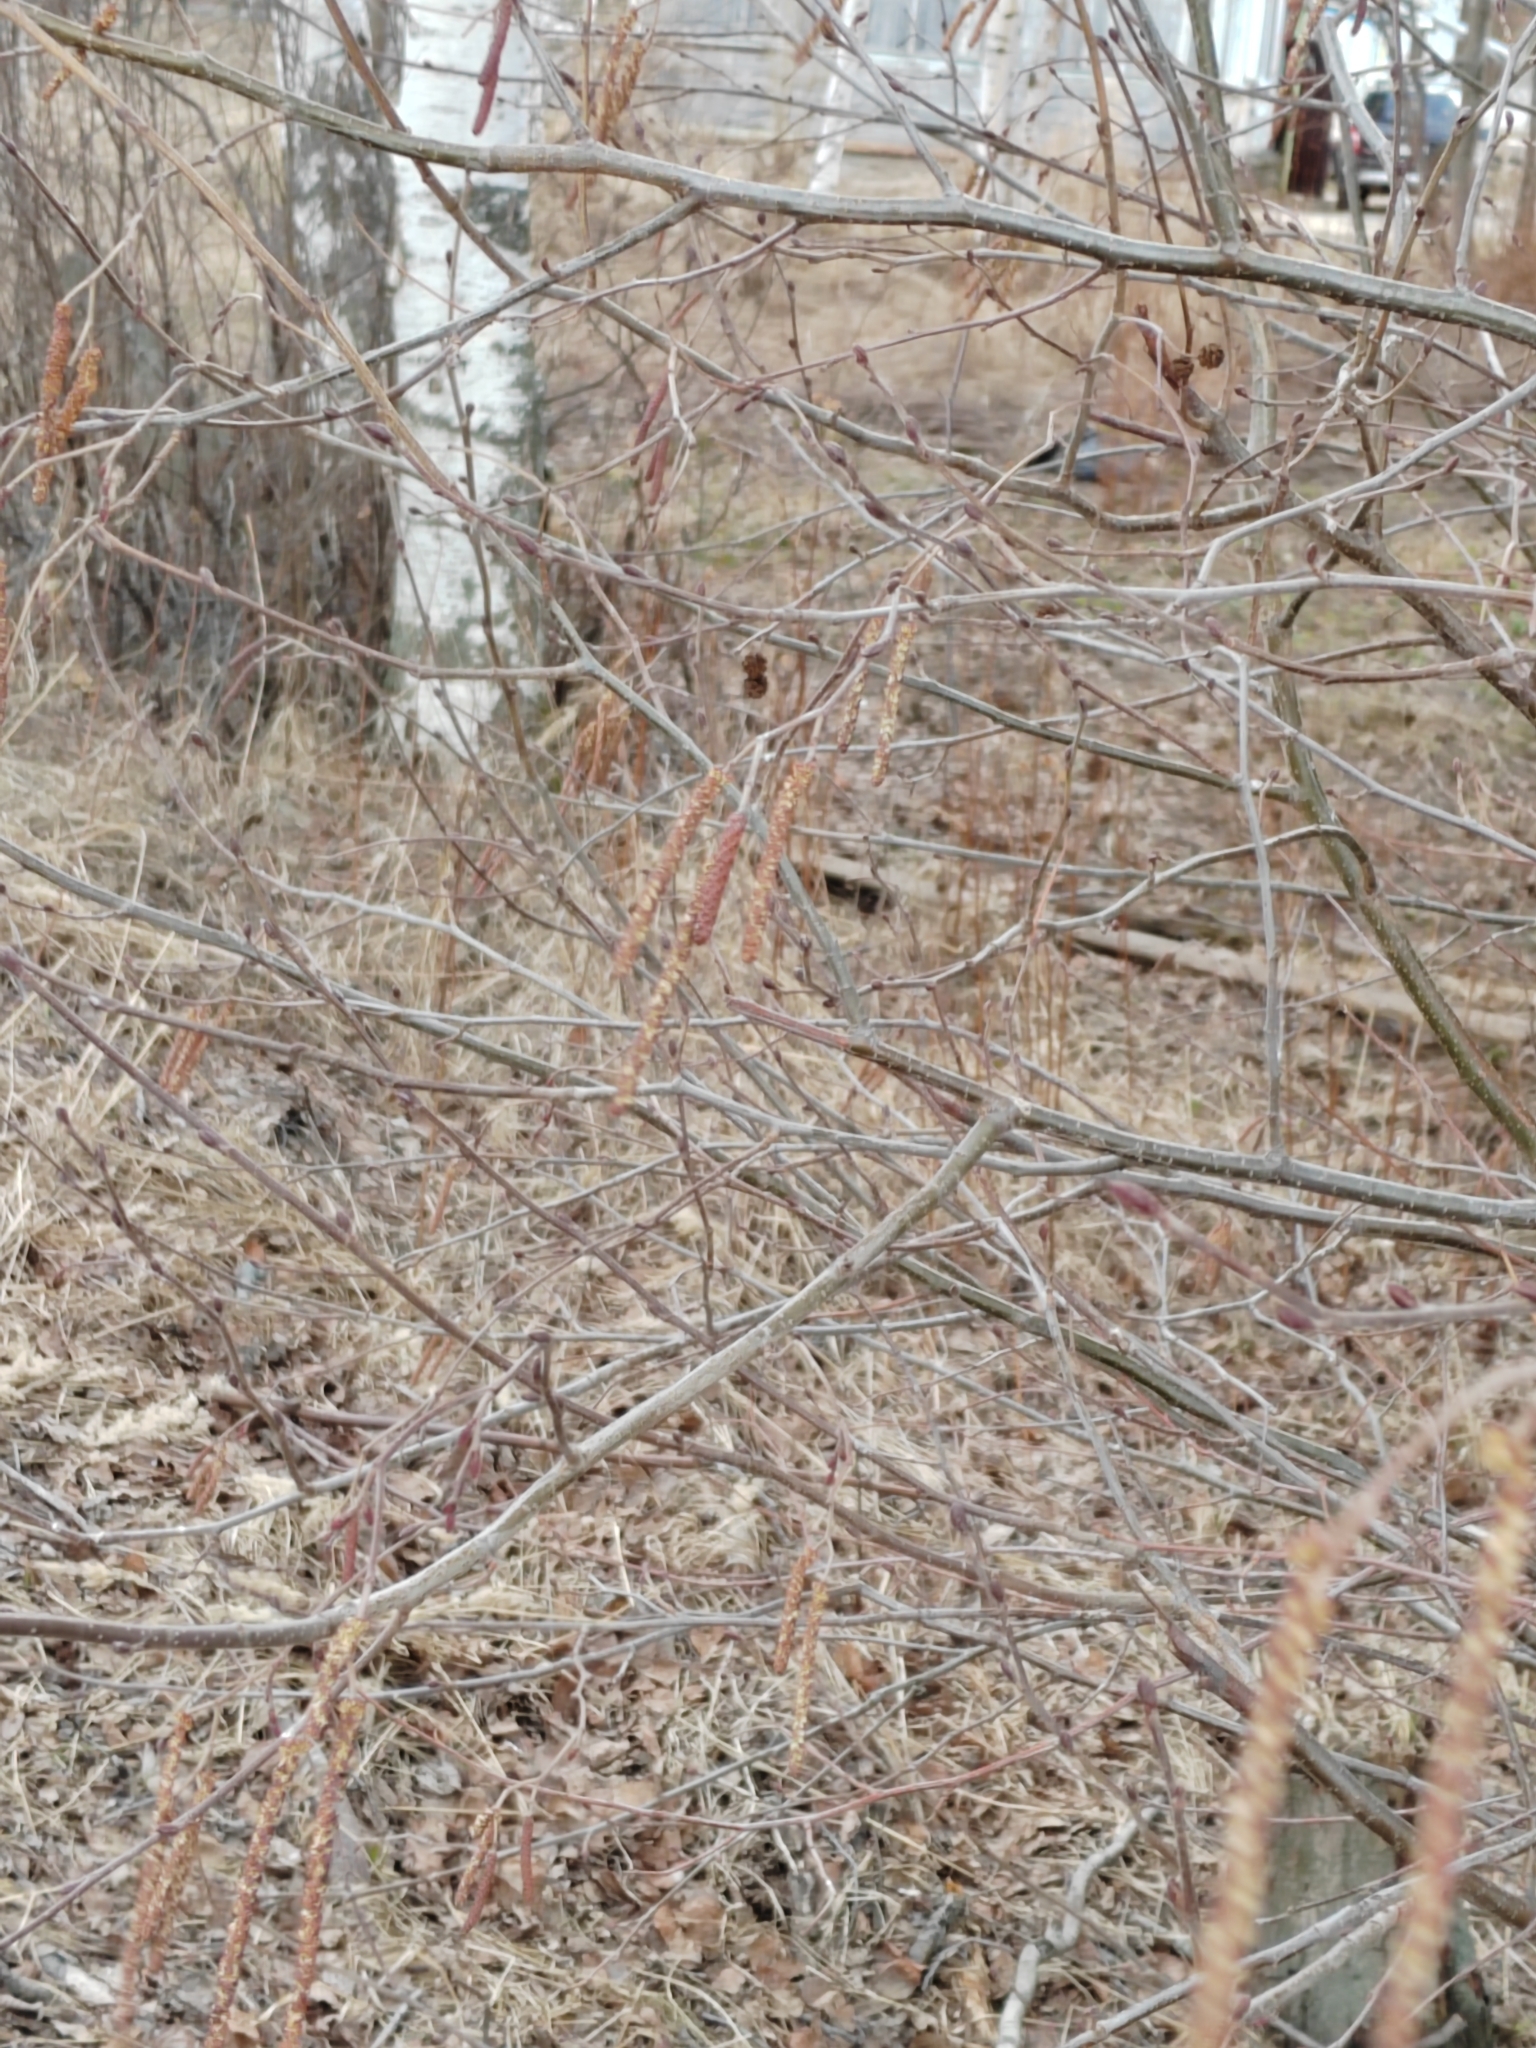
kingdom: Plantae
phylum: Tracheophyta
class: Magnoliopsida
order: Fagales
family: Betulaceae
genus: Alnus
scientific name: Alnus incana
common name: Grey alder
